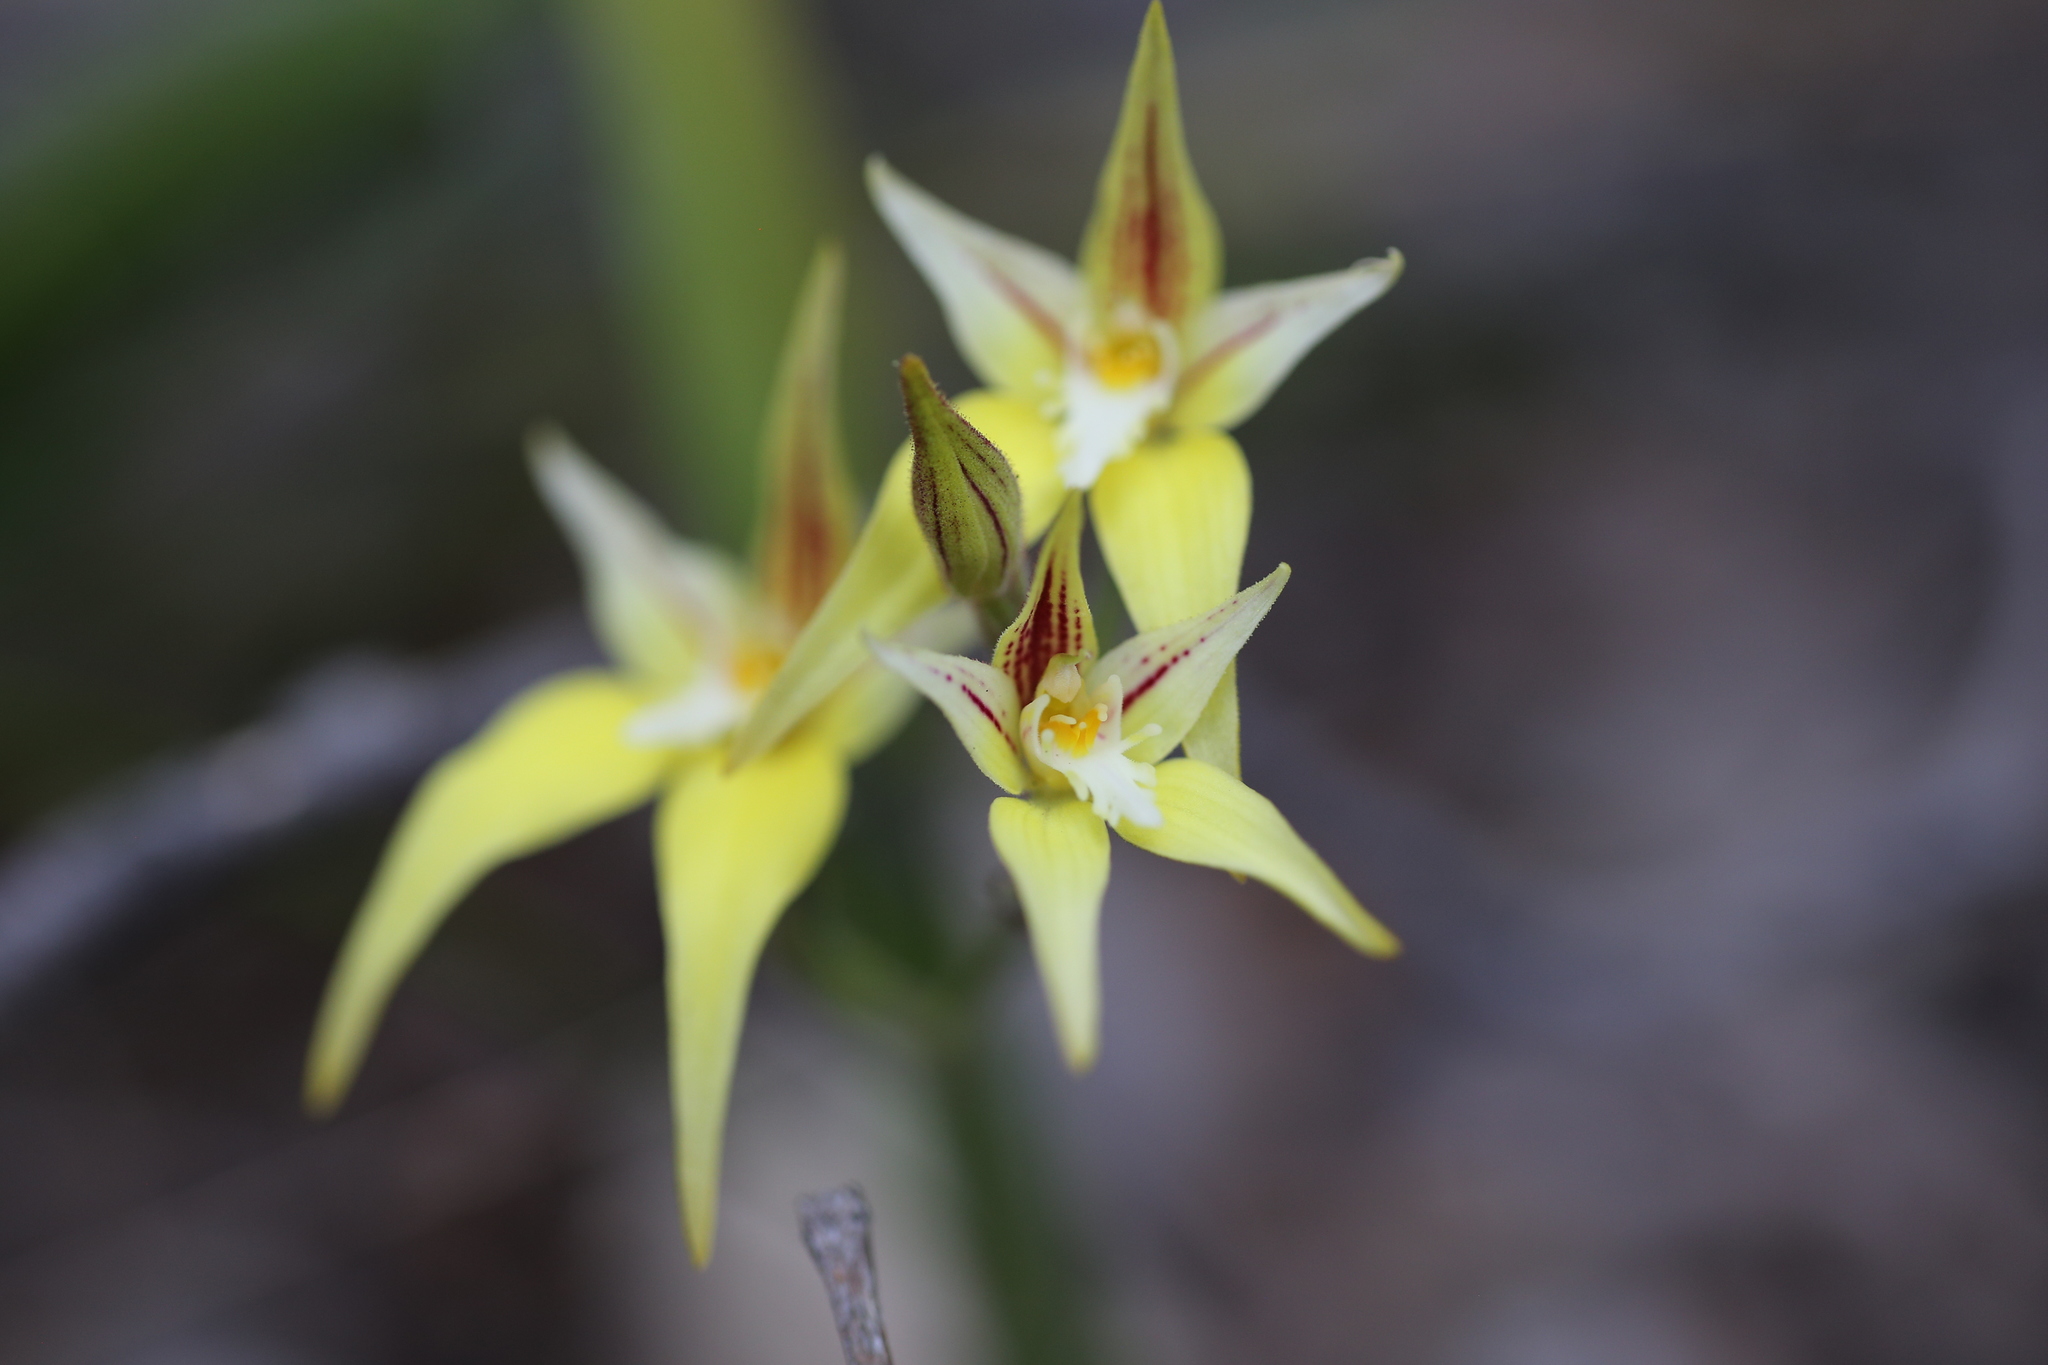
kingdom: Plantae
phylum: Tracheophyta
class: Liliopsida
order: Asparagales
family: Orchidaceae
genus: Caladenia
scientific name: Caladenia flava
